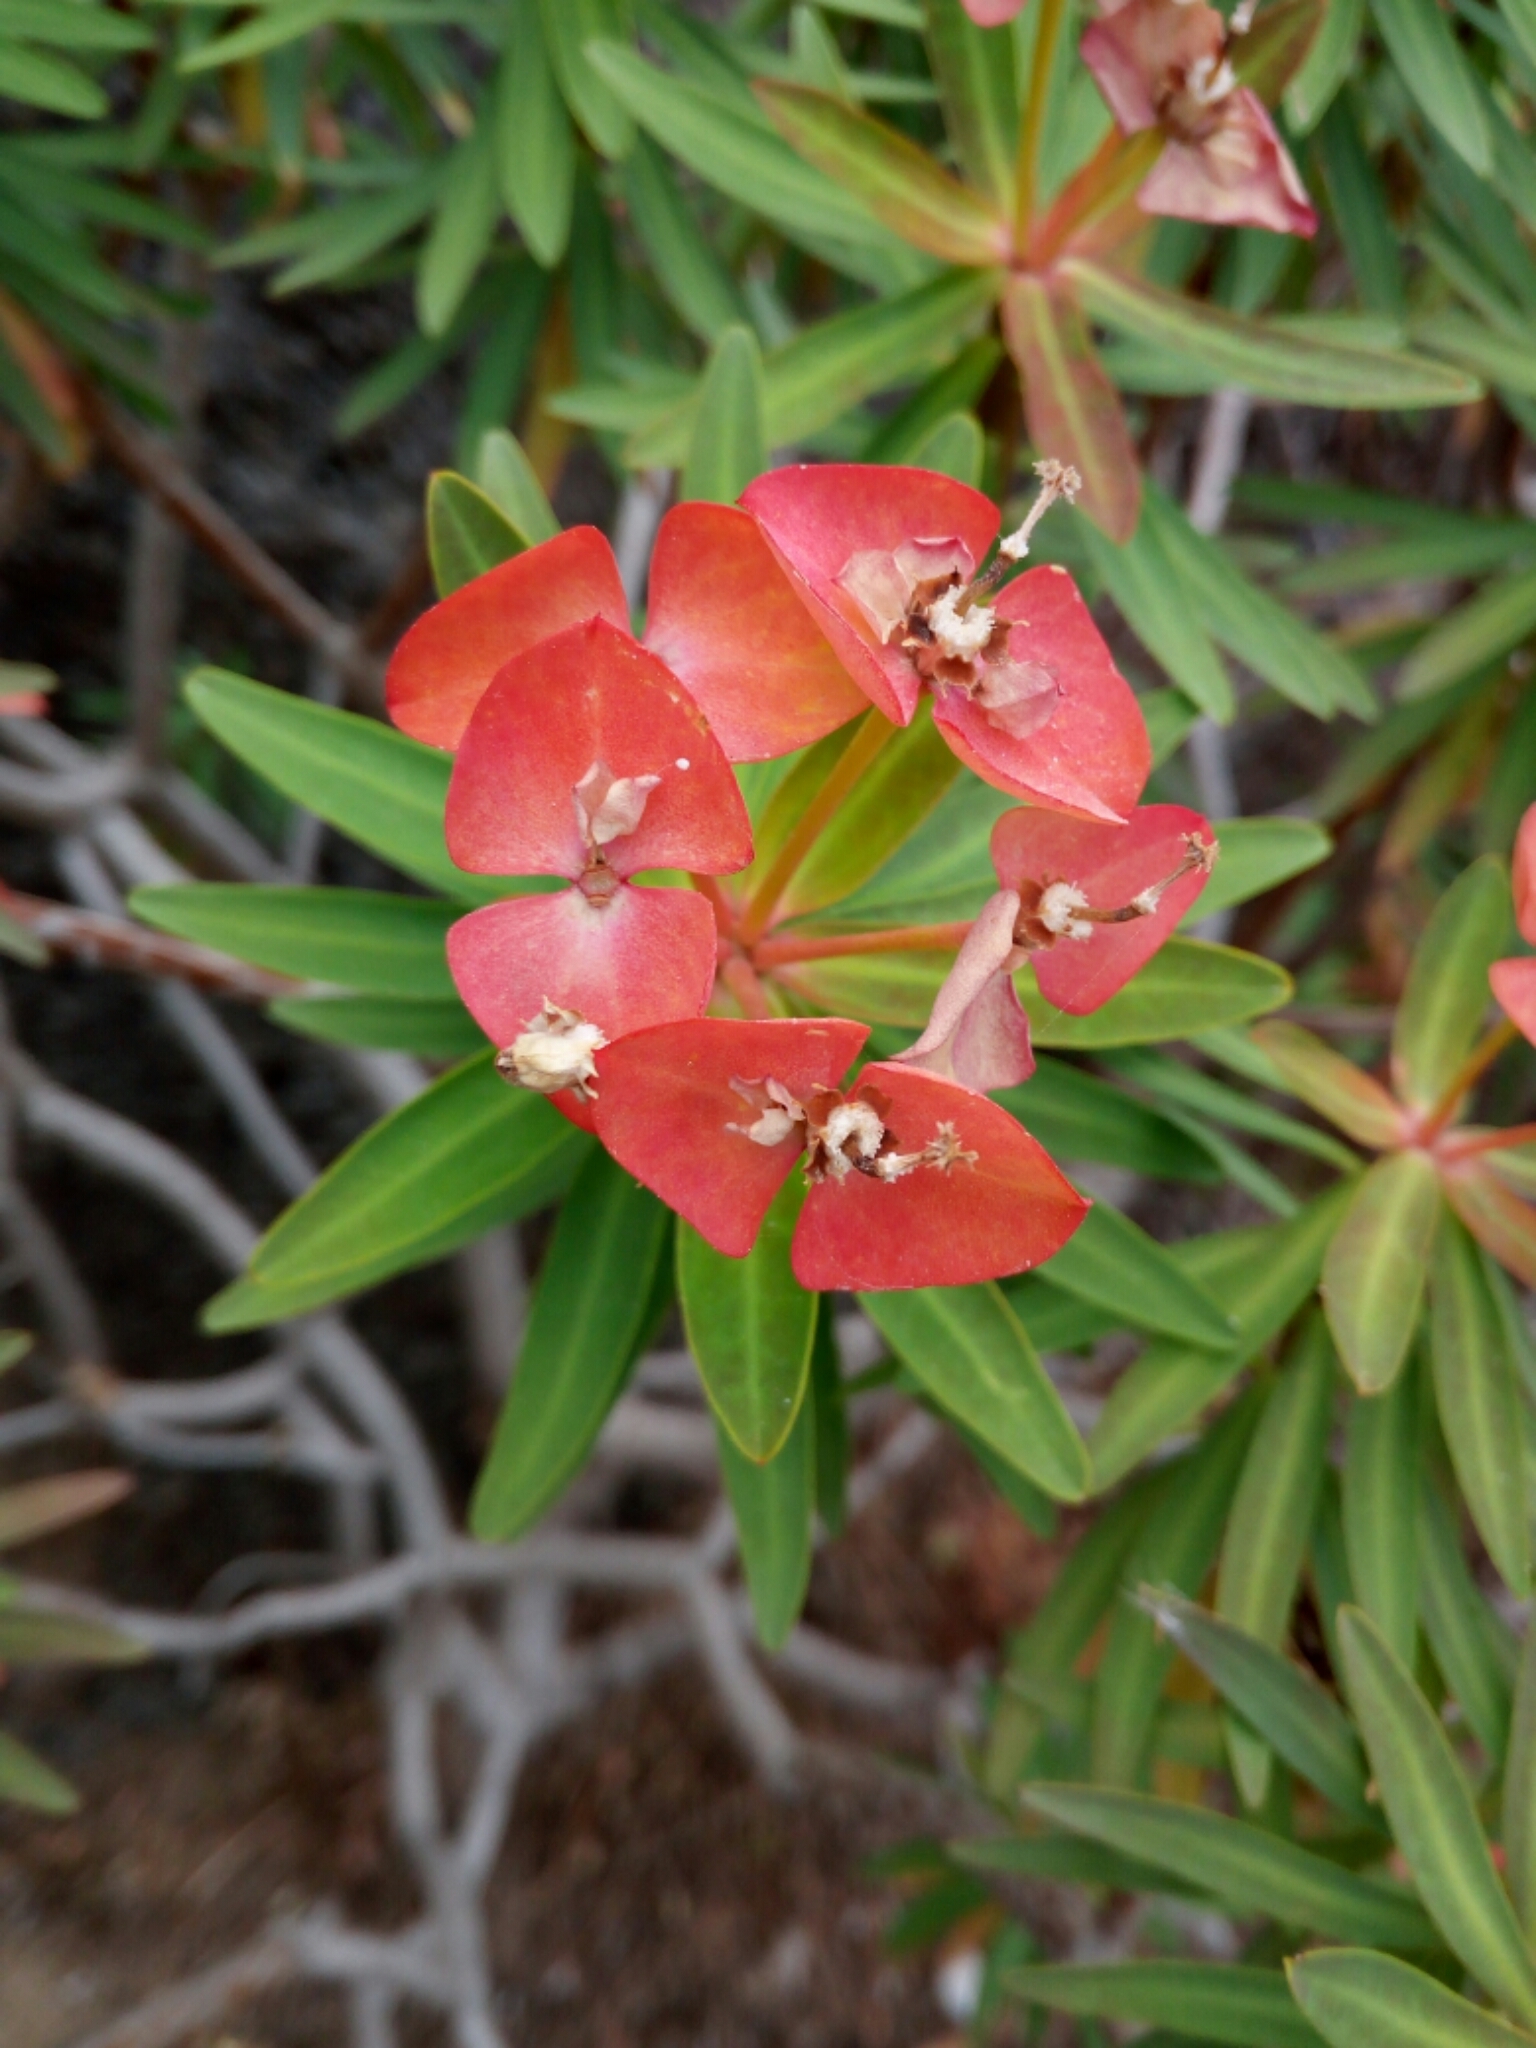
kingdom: Plantae
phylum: Tracheophyta
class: Magnoliopsida
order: Malpighiales
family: Euphorbiaceae
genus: Euphorbia
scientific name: Euphorbia dendroides
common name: Tree spurge
